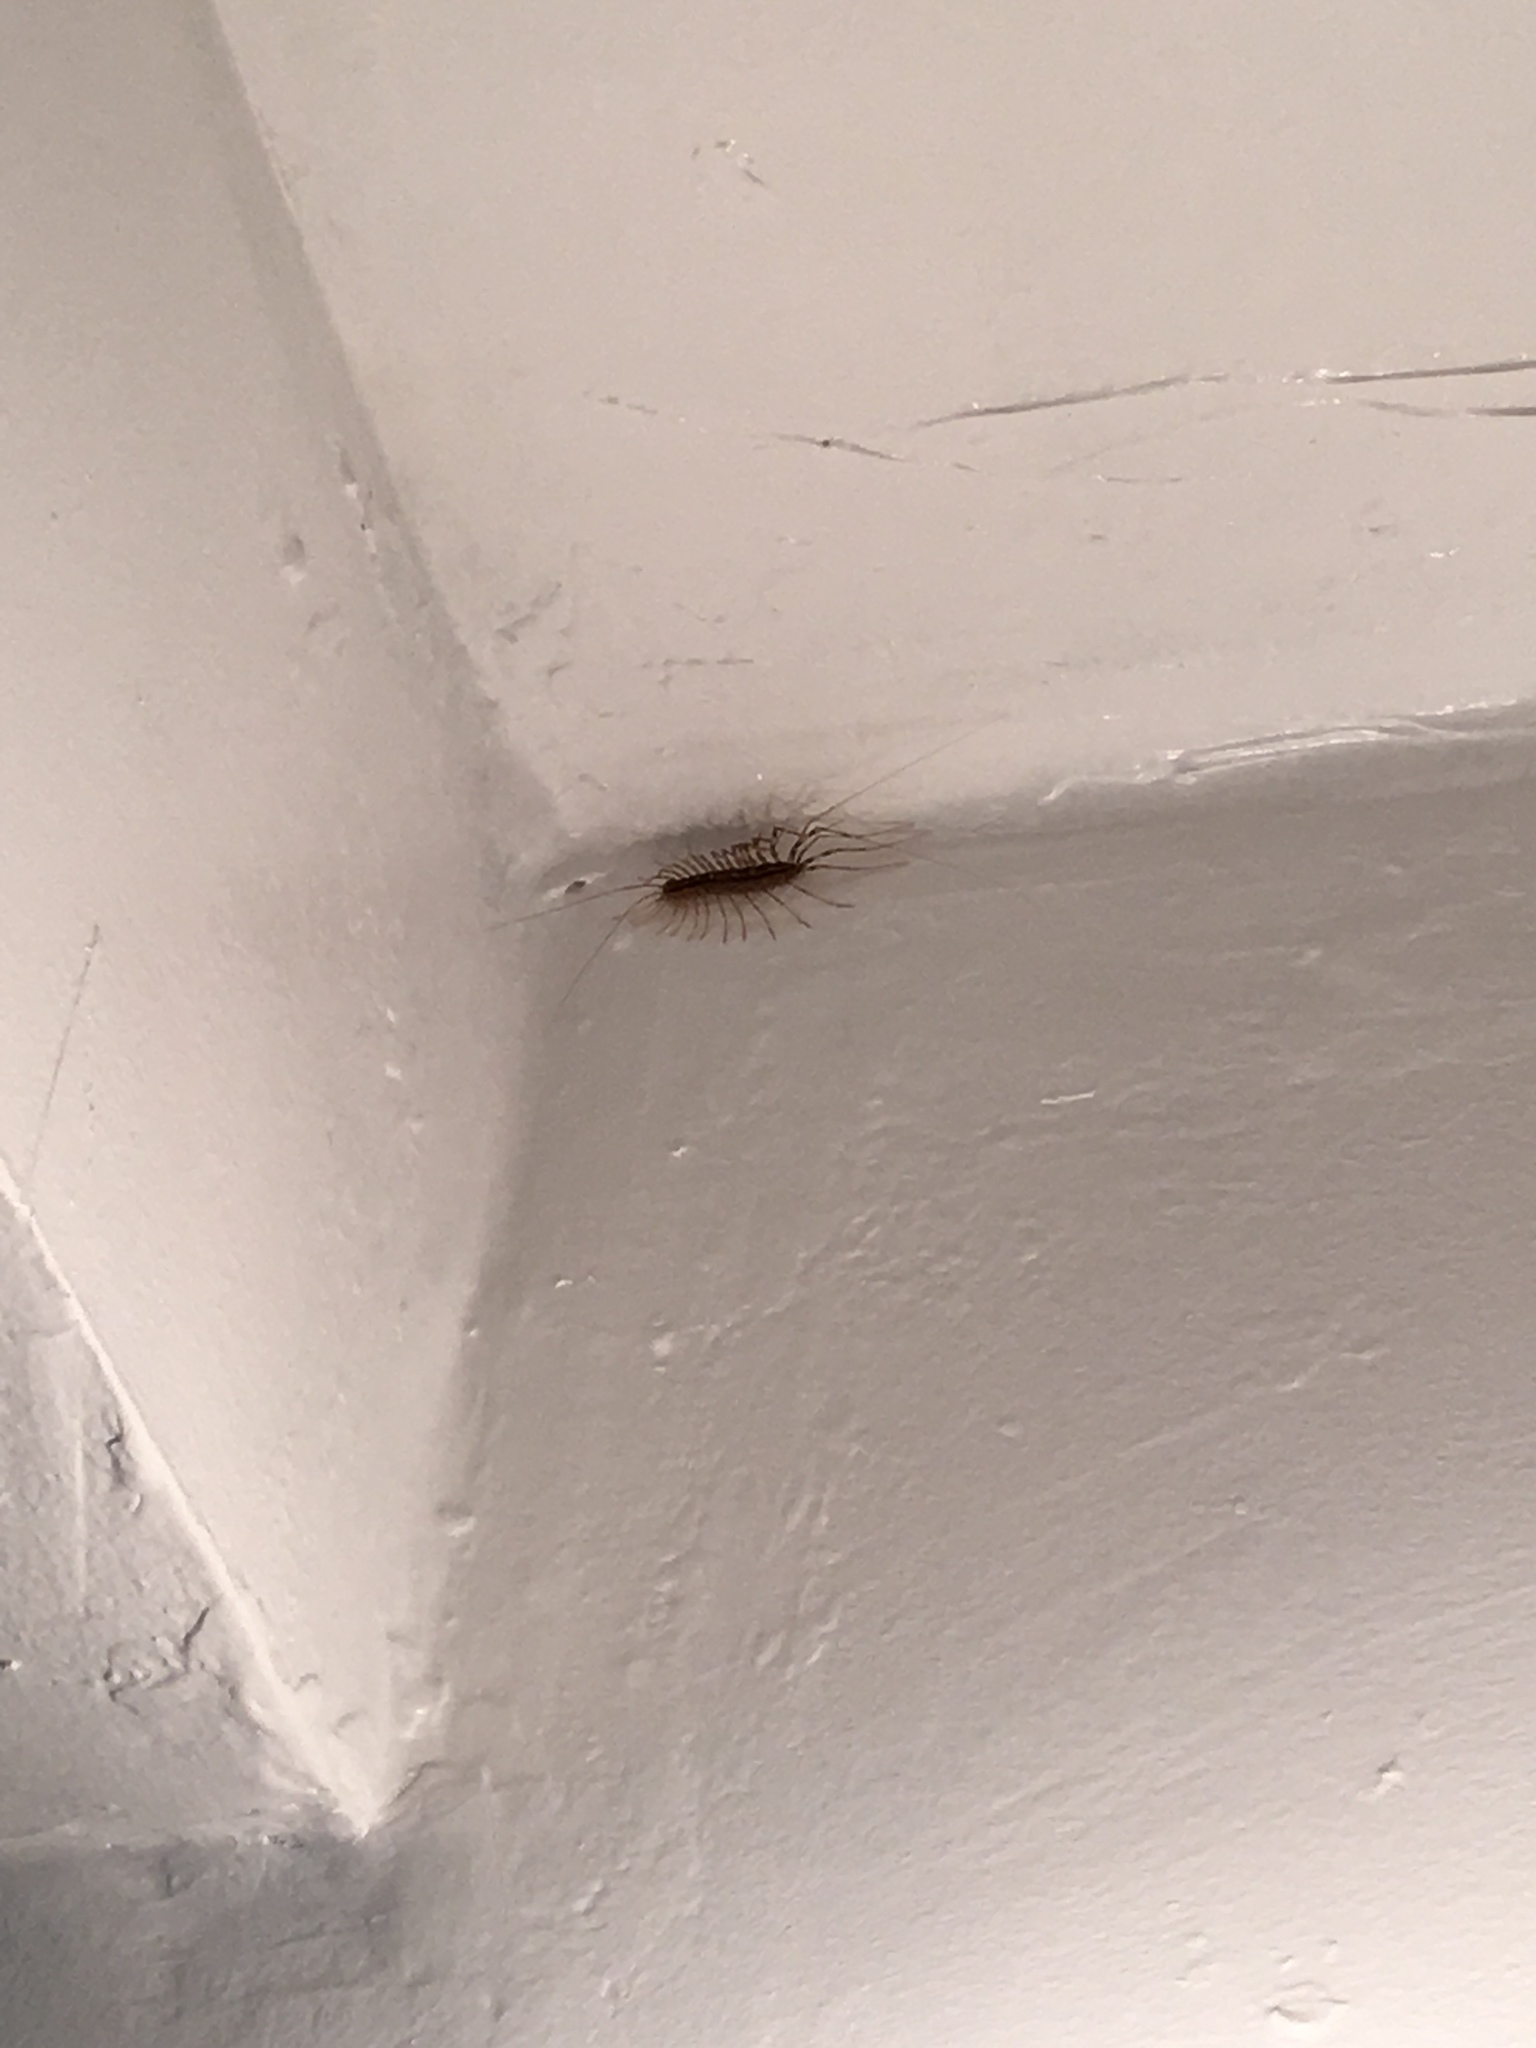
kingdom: Animalia
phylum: Arthropoda
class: Chilopoda
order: Scutigeromorpha
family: Scutigeridae
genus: Scutigera
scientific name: Scutigera coleoptrata
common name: House centipede
